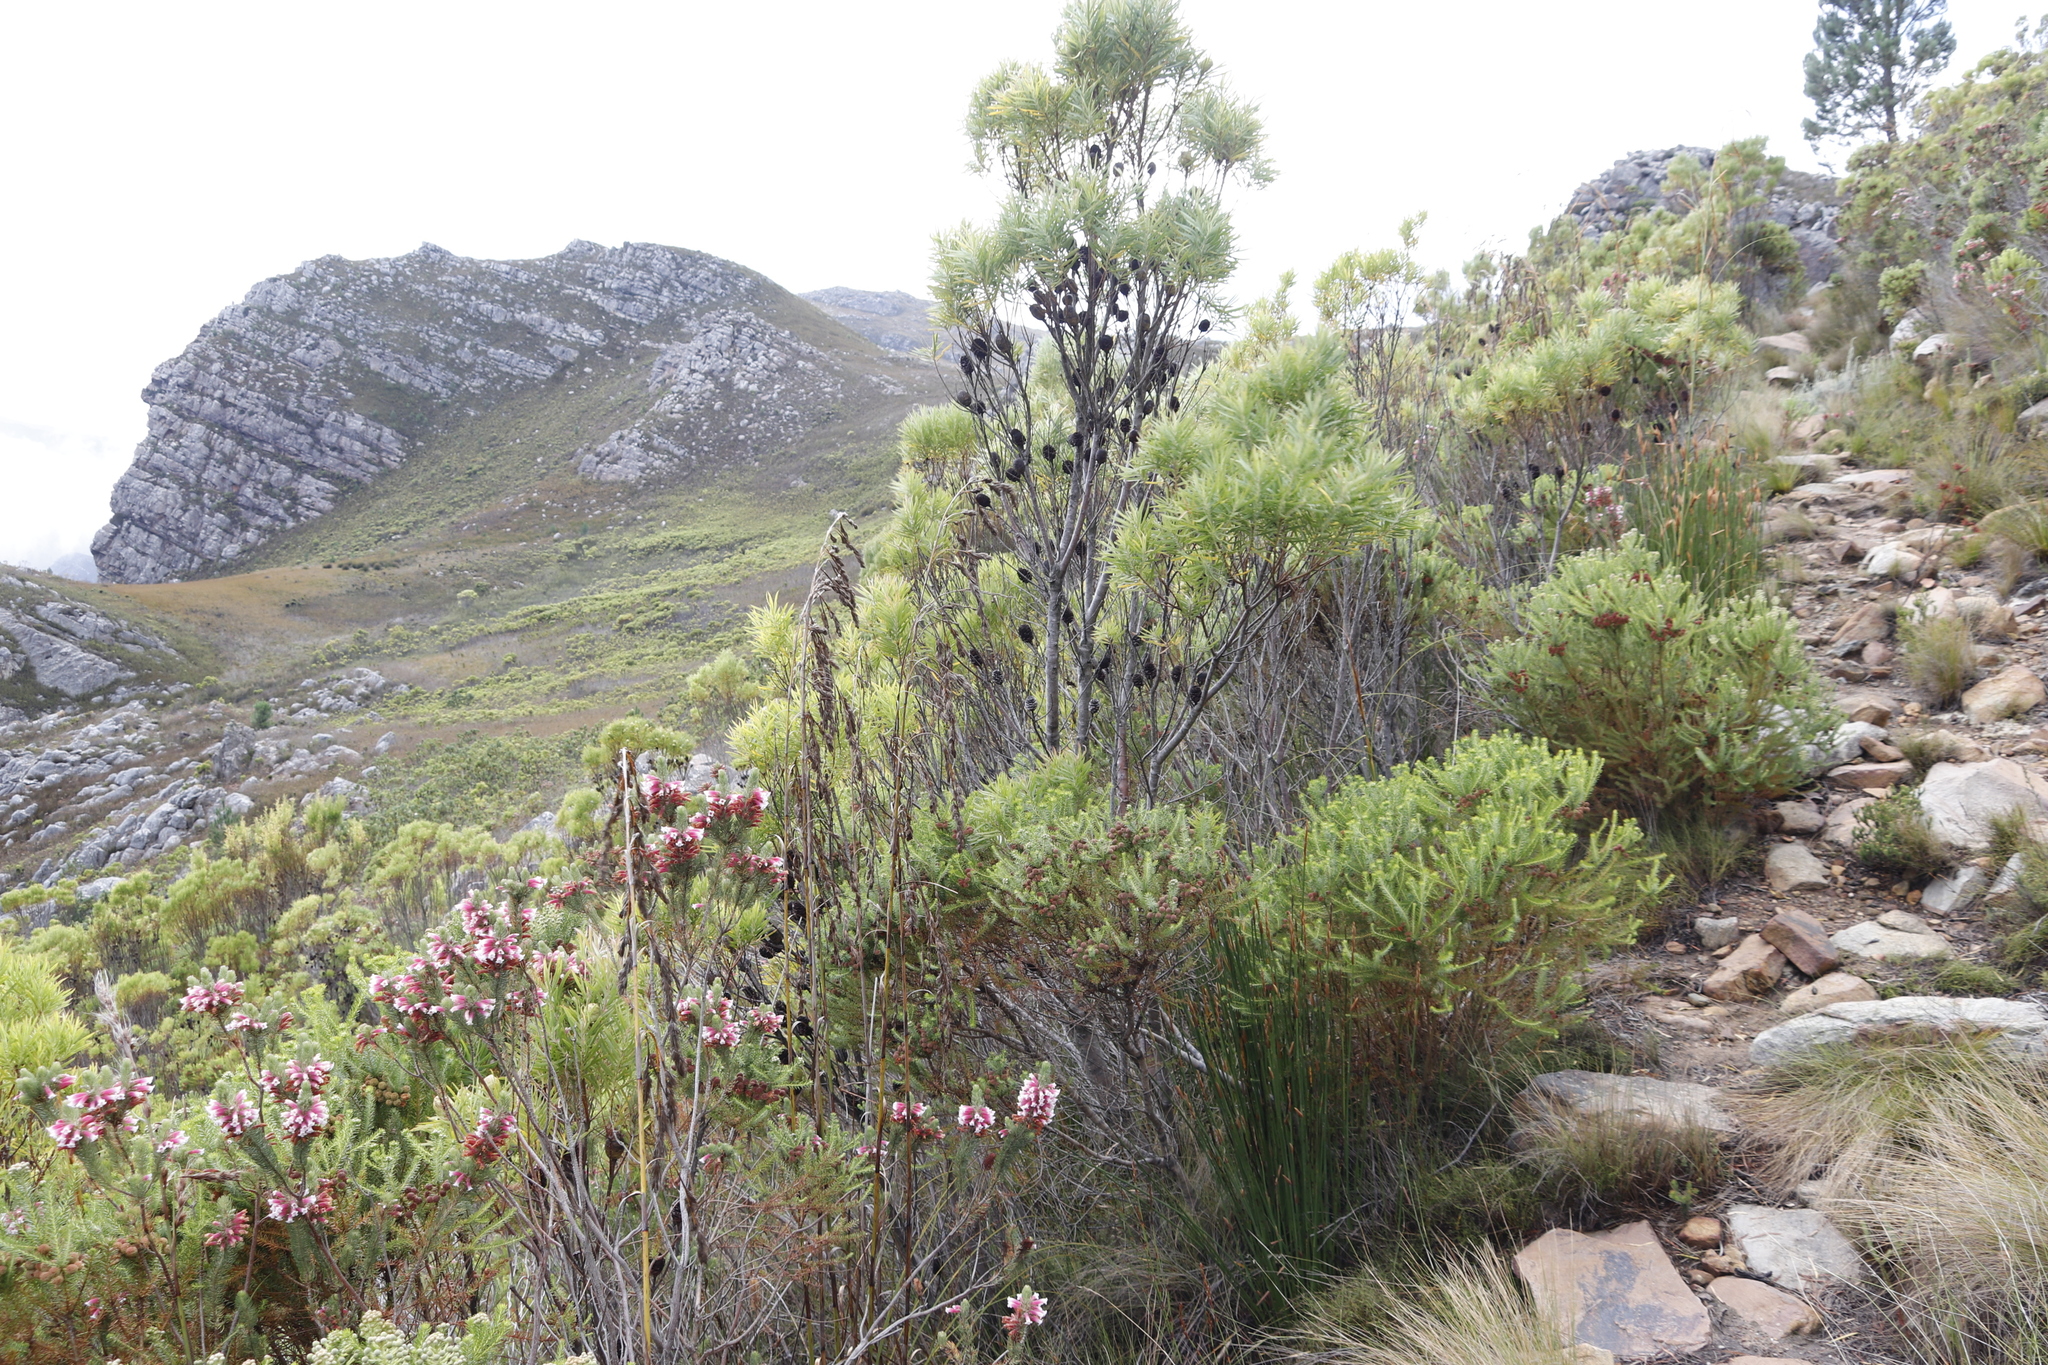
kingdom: Plantae
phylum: Tracheophyta
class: Magnoliopsida
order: Proteales
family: Proteaceae
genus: Leucadendron
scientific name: Leucadendron salicifolium
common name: Common stream conebush
